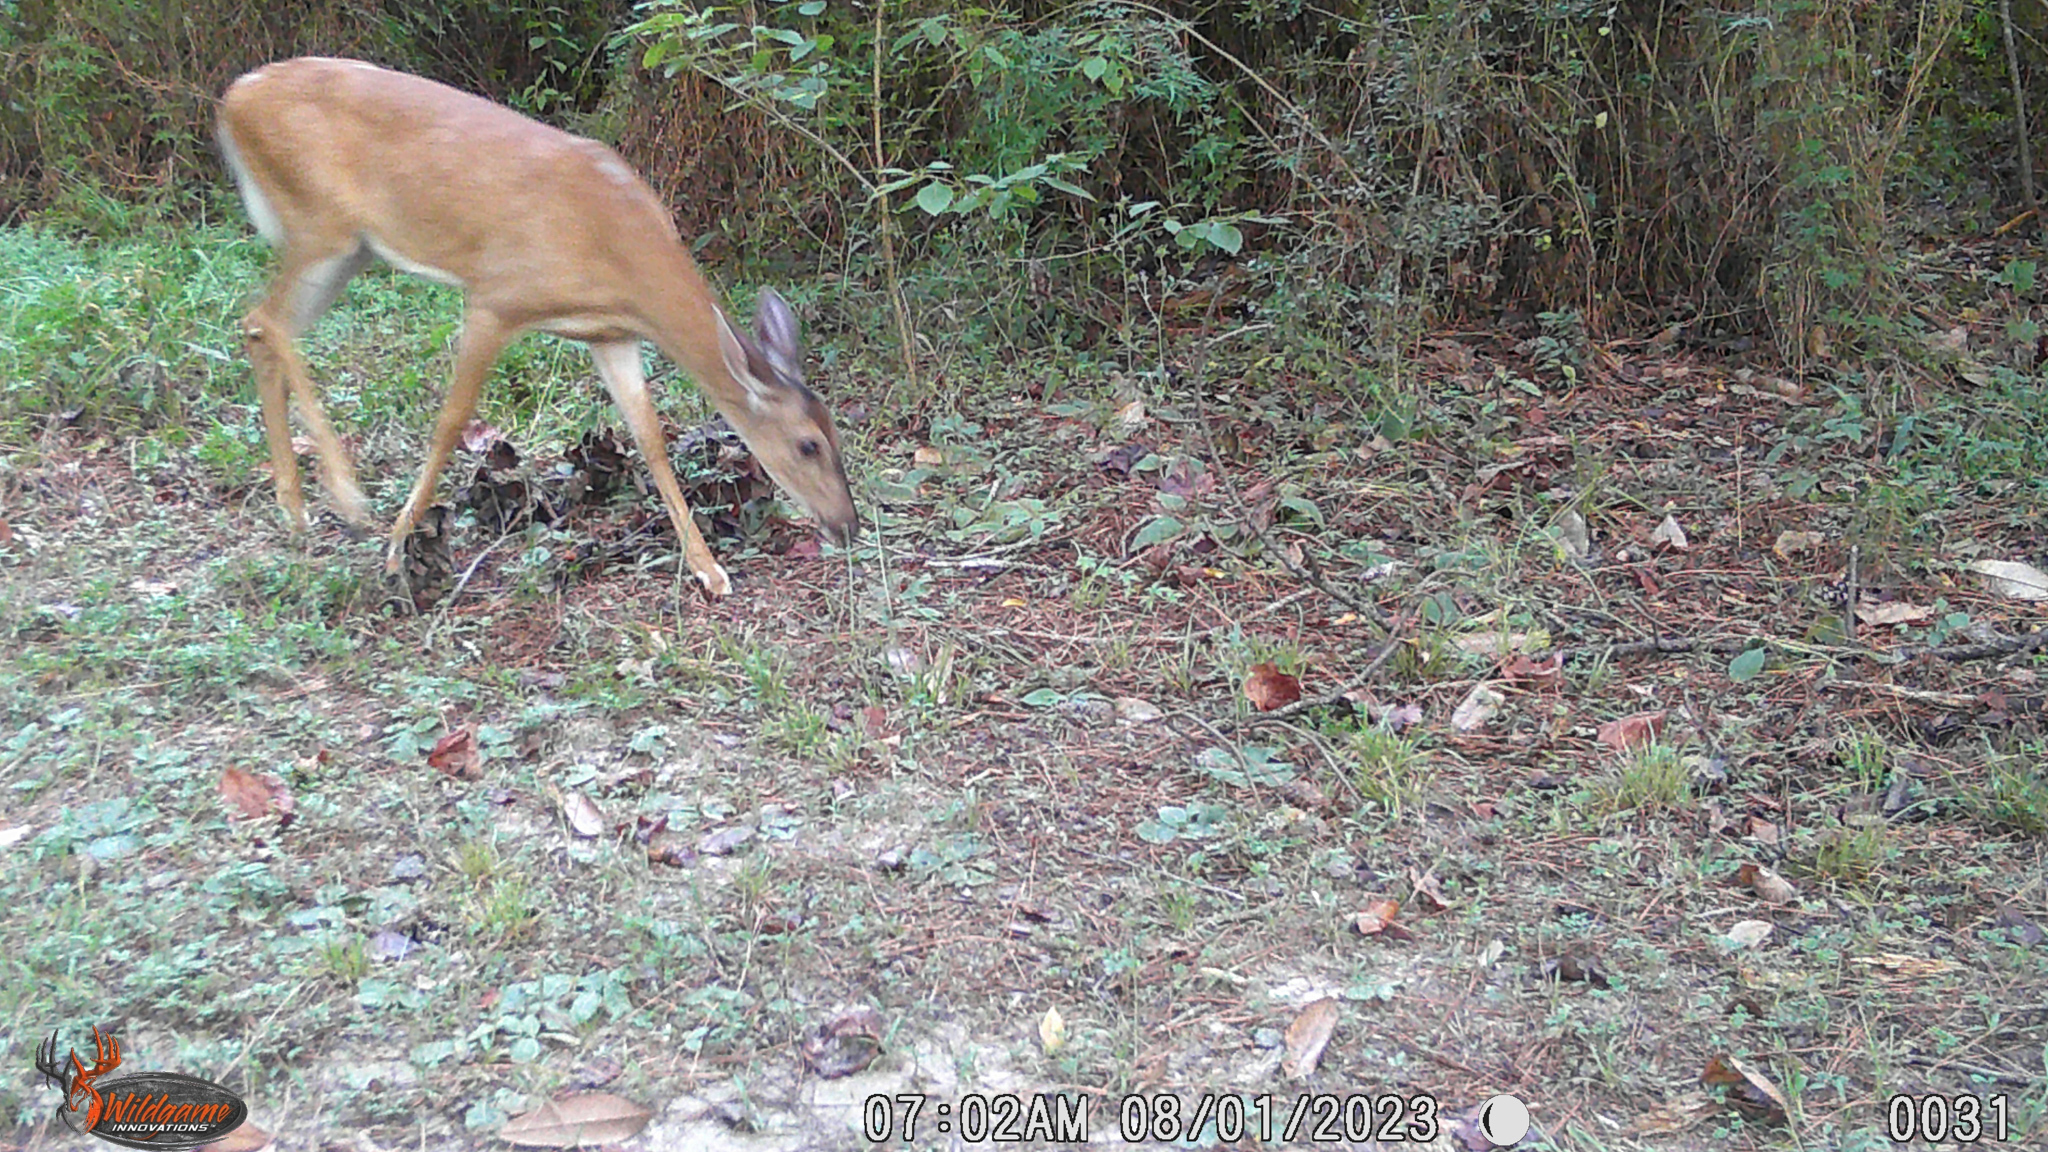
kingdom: Animalia
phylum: Chordata
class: Mammalia
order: Artiodactyla
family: Cervidae
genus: Odocoileus
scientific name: Odocoileus virginianus
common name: White-tailed deer
